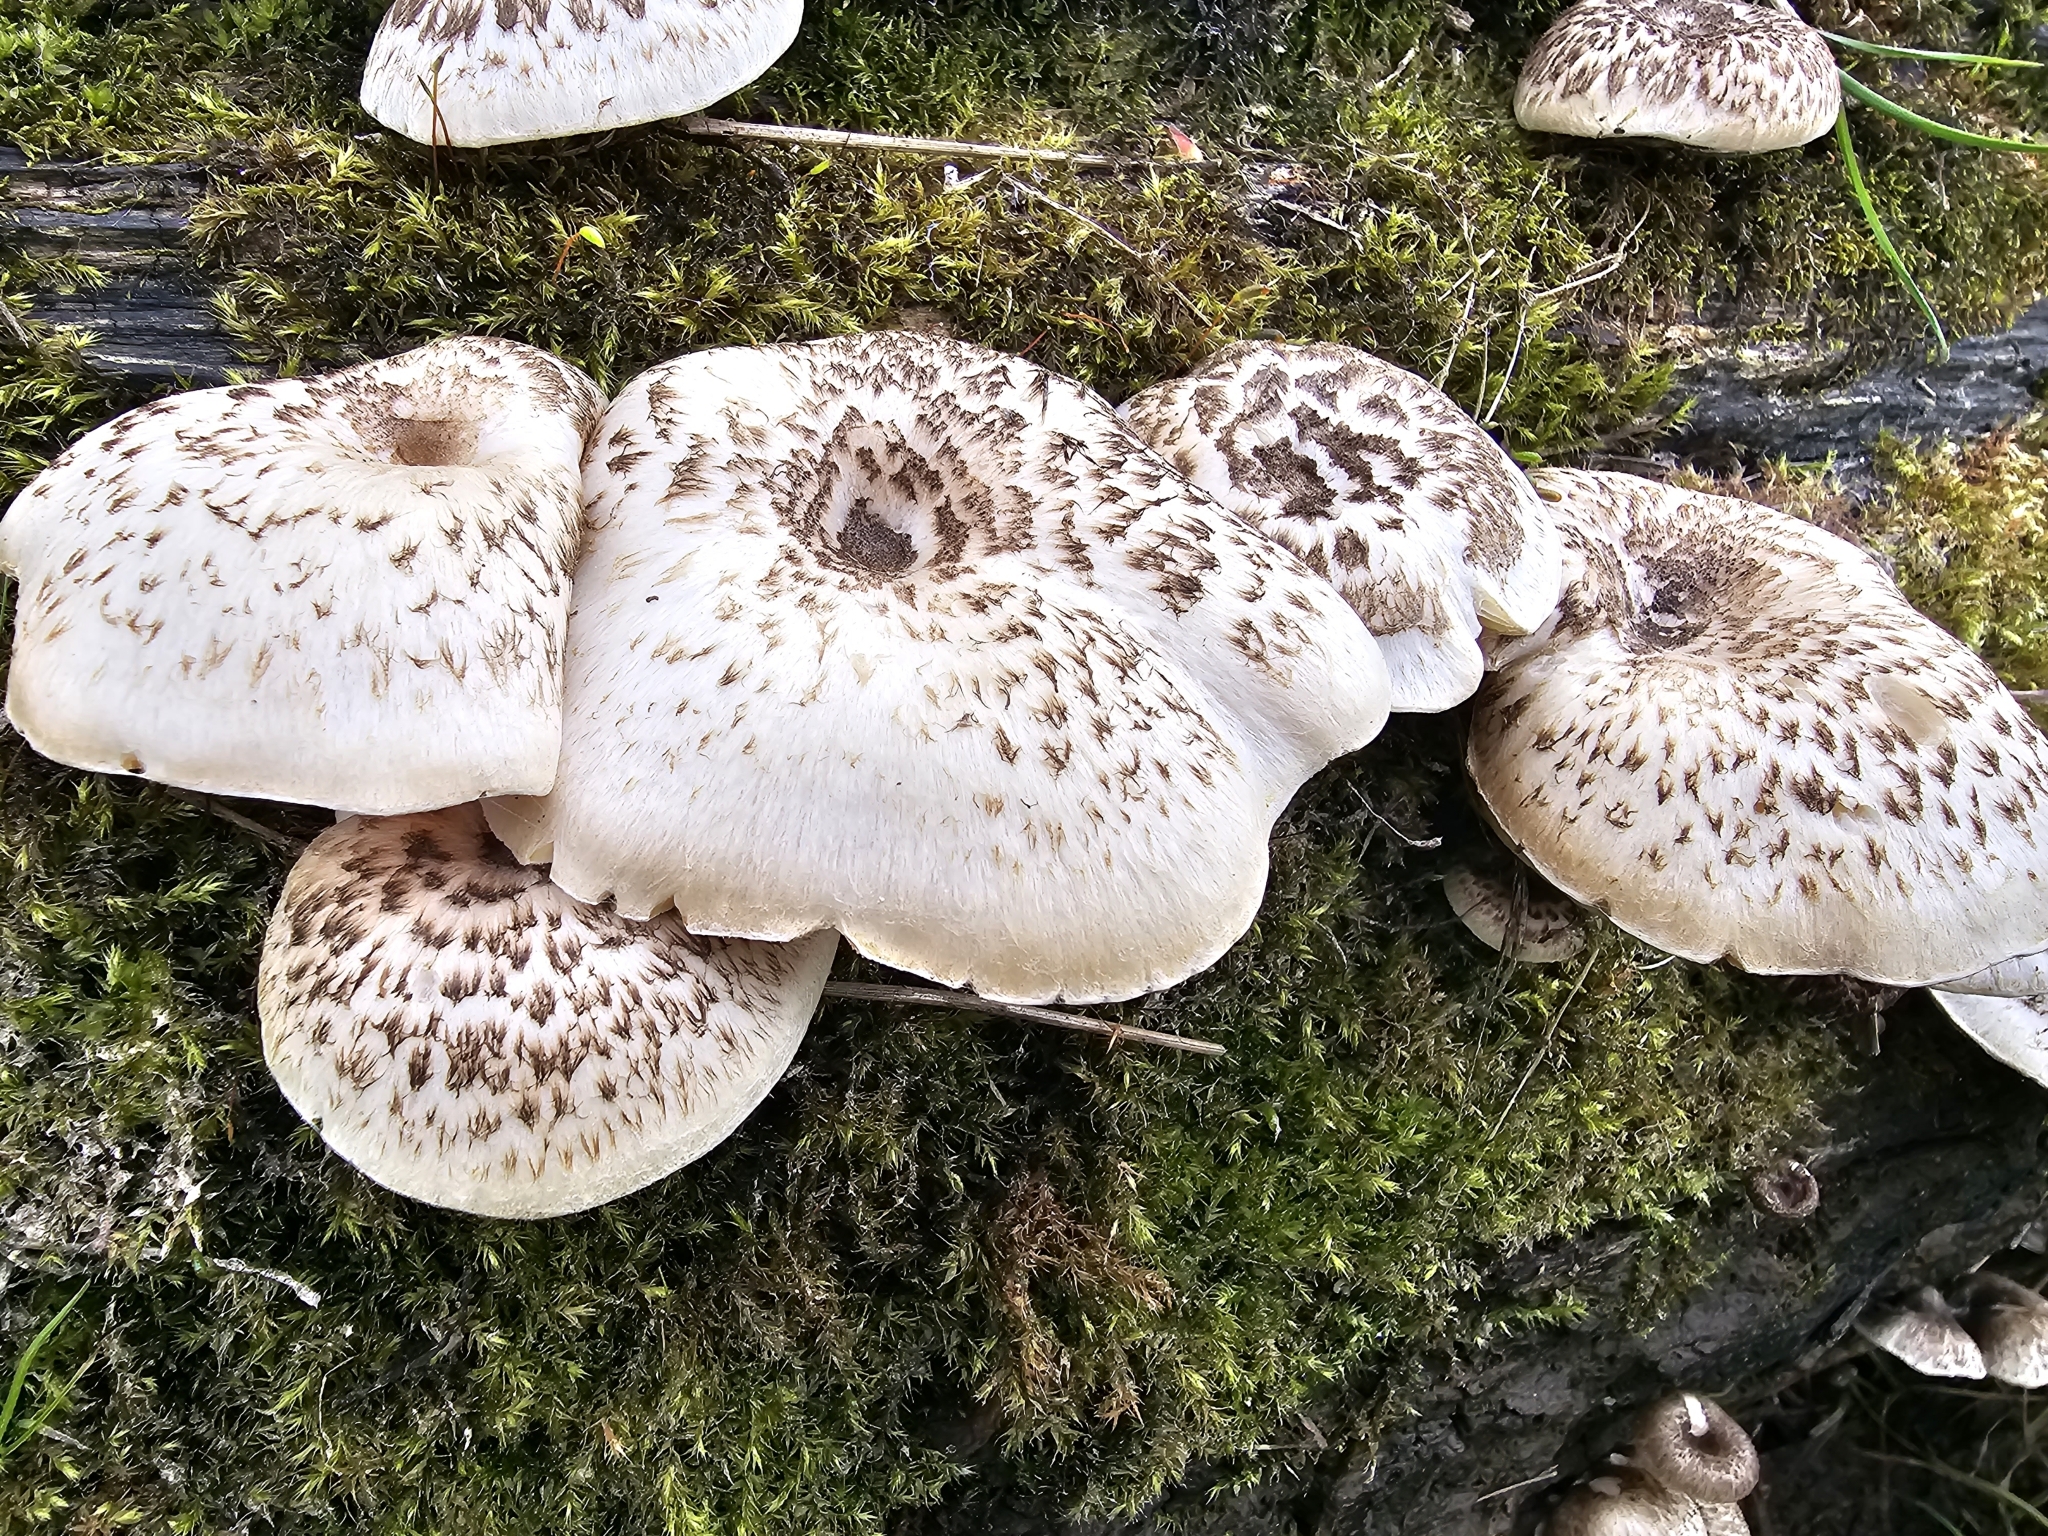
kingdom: Fungi
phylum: Basidiomycota
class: Agaricomycetes
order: Polyporales
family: Polyporaceae
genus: Lentinus
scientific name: Lentinus tigrinus
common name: Tiger sawgill
